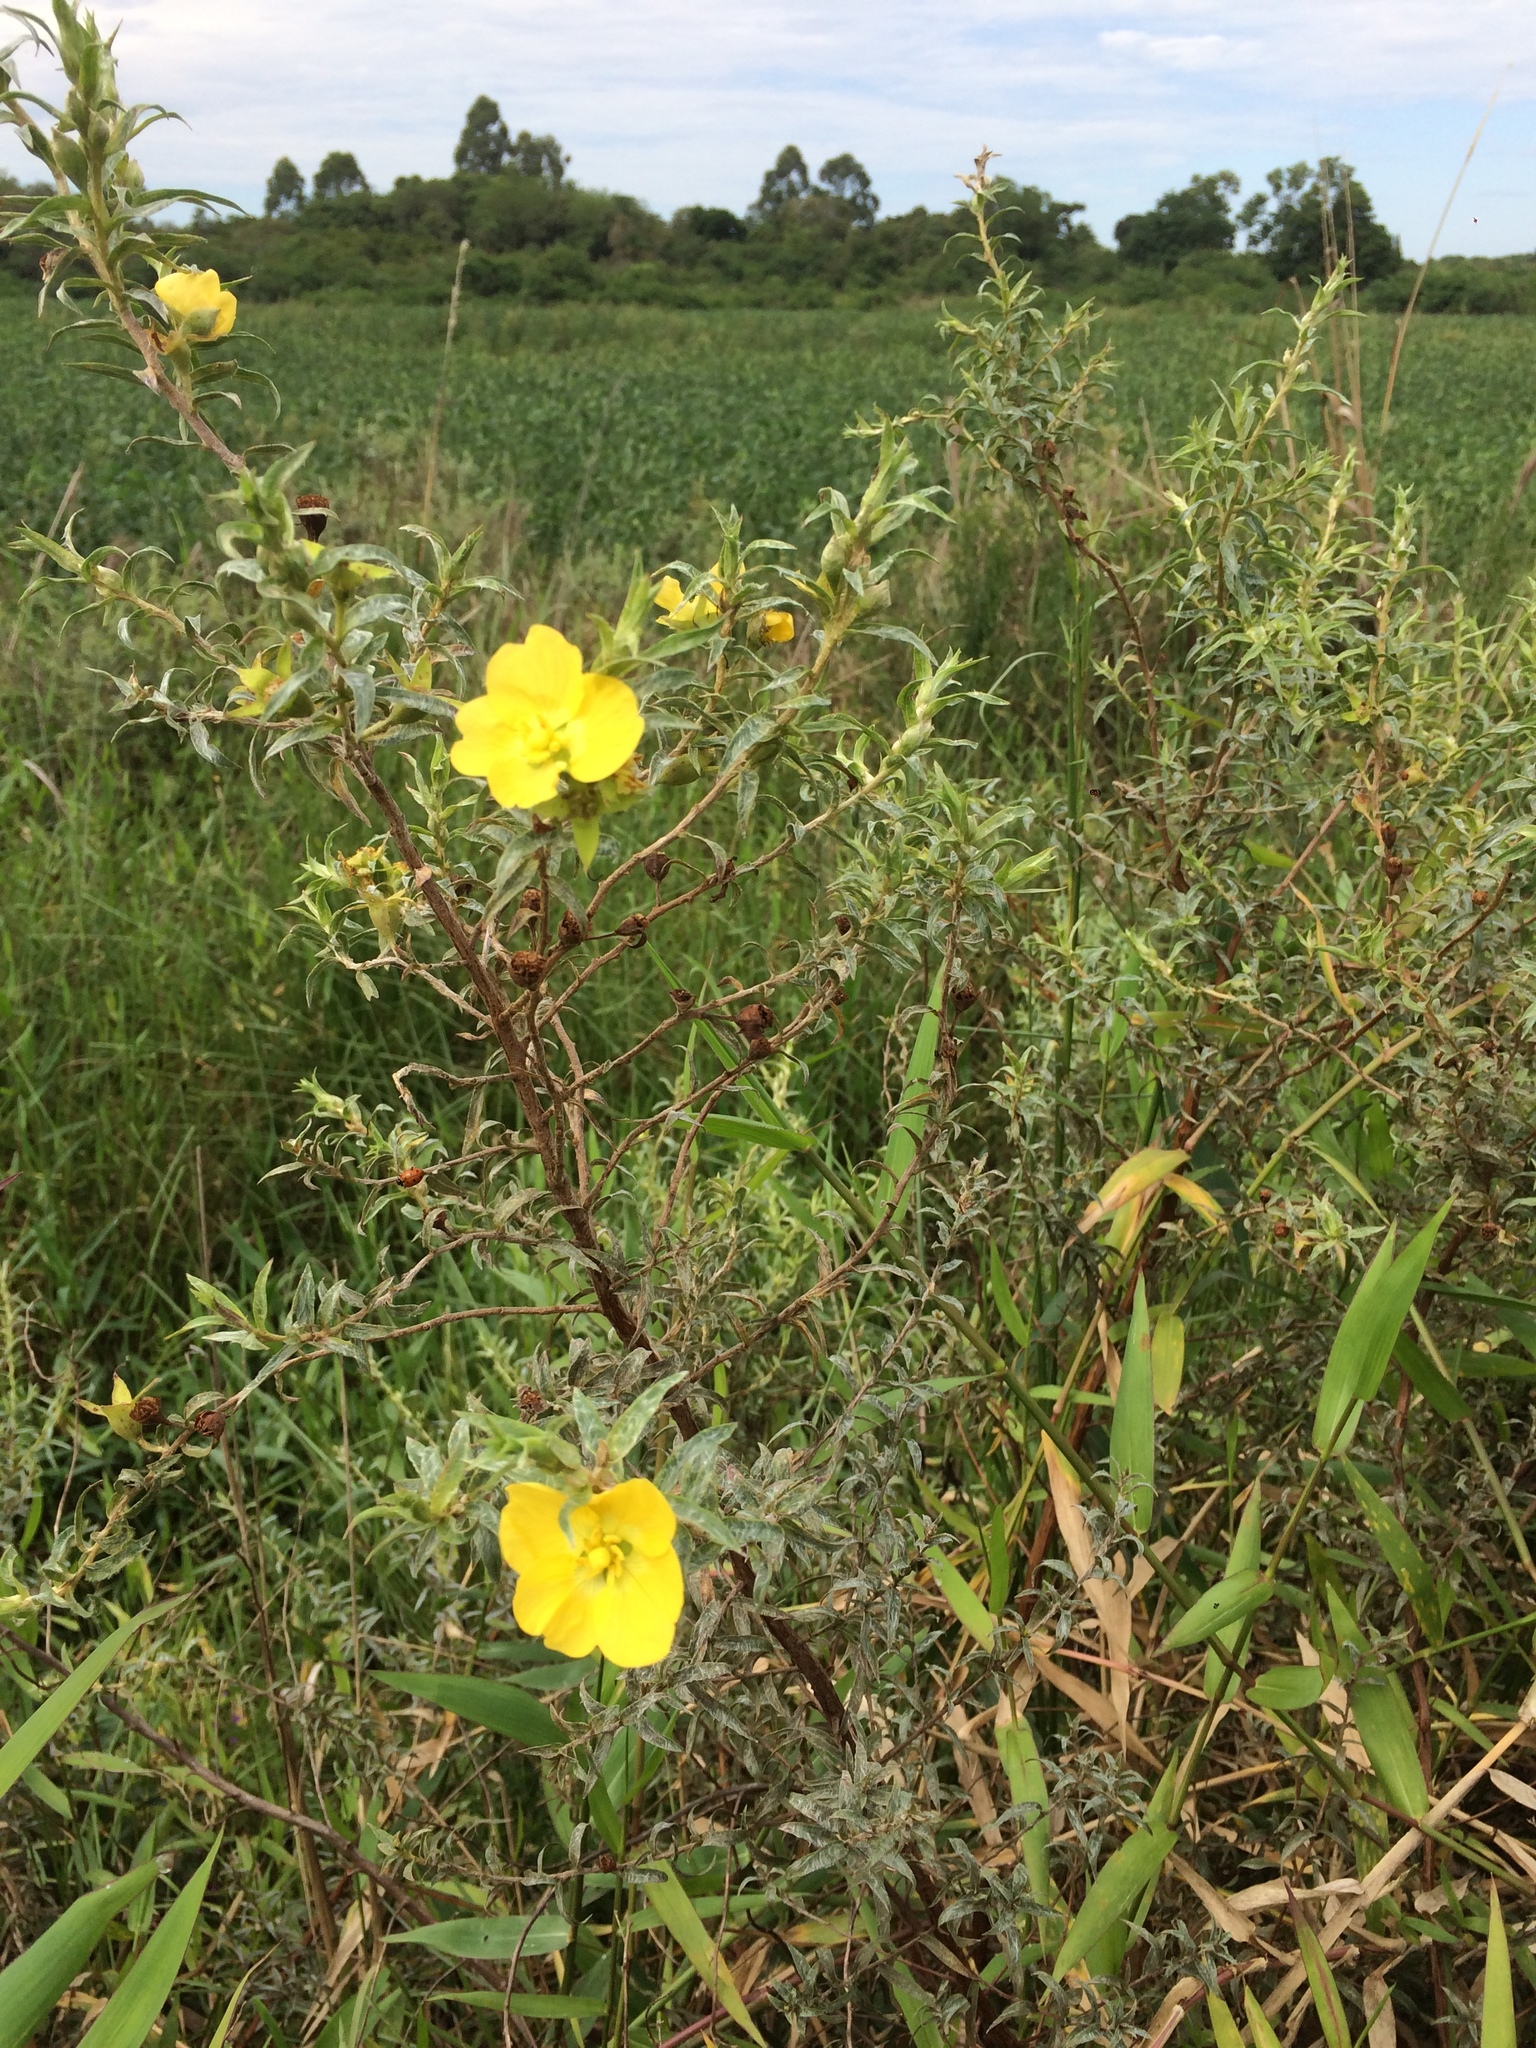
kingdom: Plantae
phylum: Tracheophyta
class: Magnoliopsida
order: Myrtales
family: Onagraceae
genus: Ludwigia
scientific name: Ludwigia sericea
